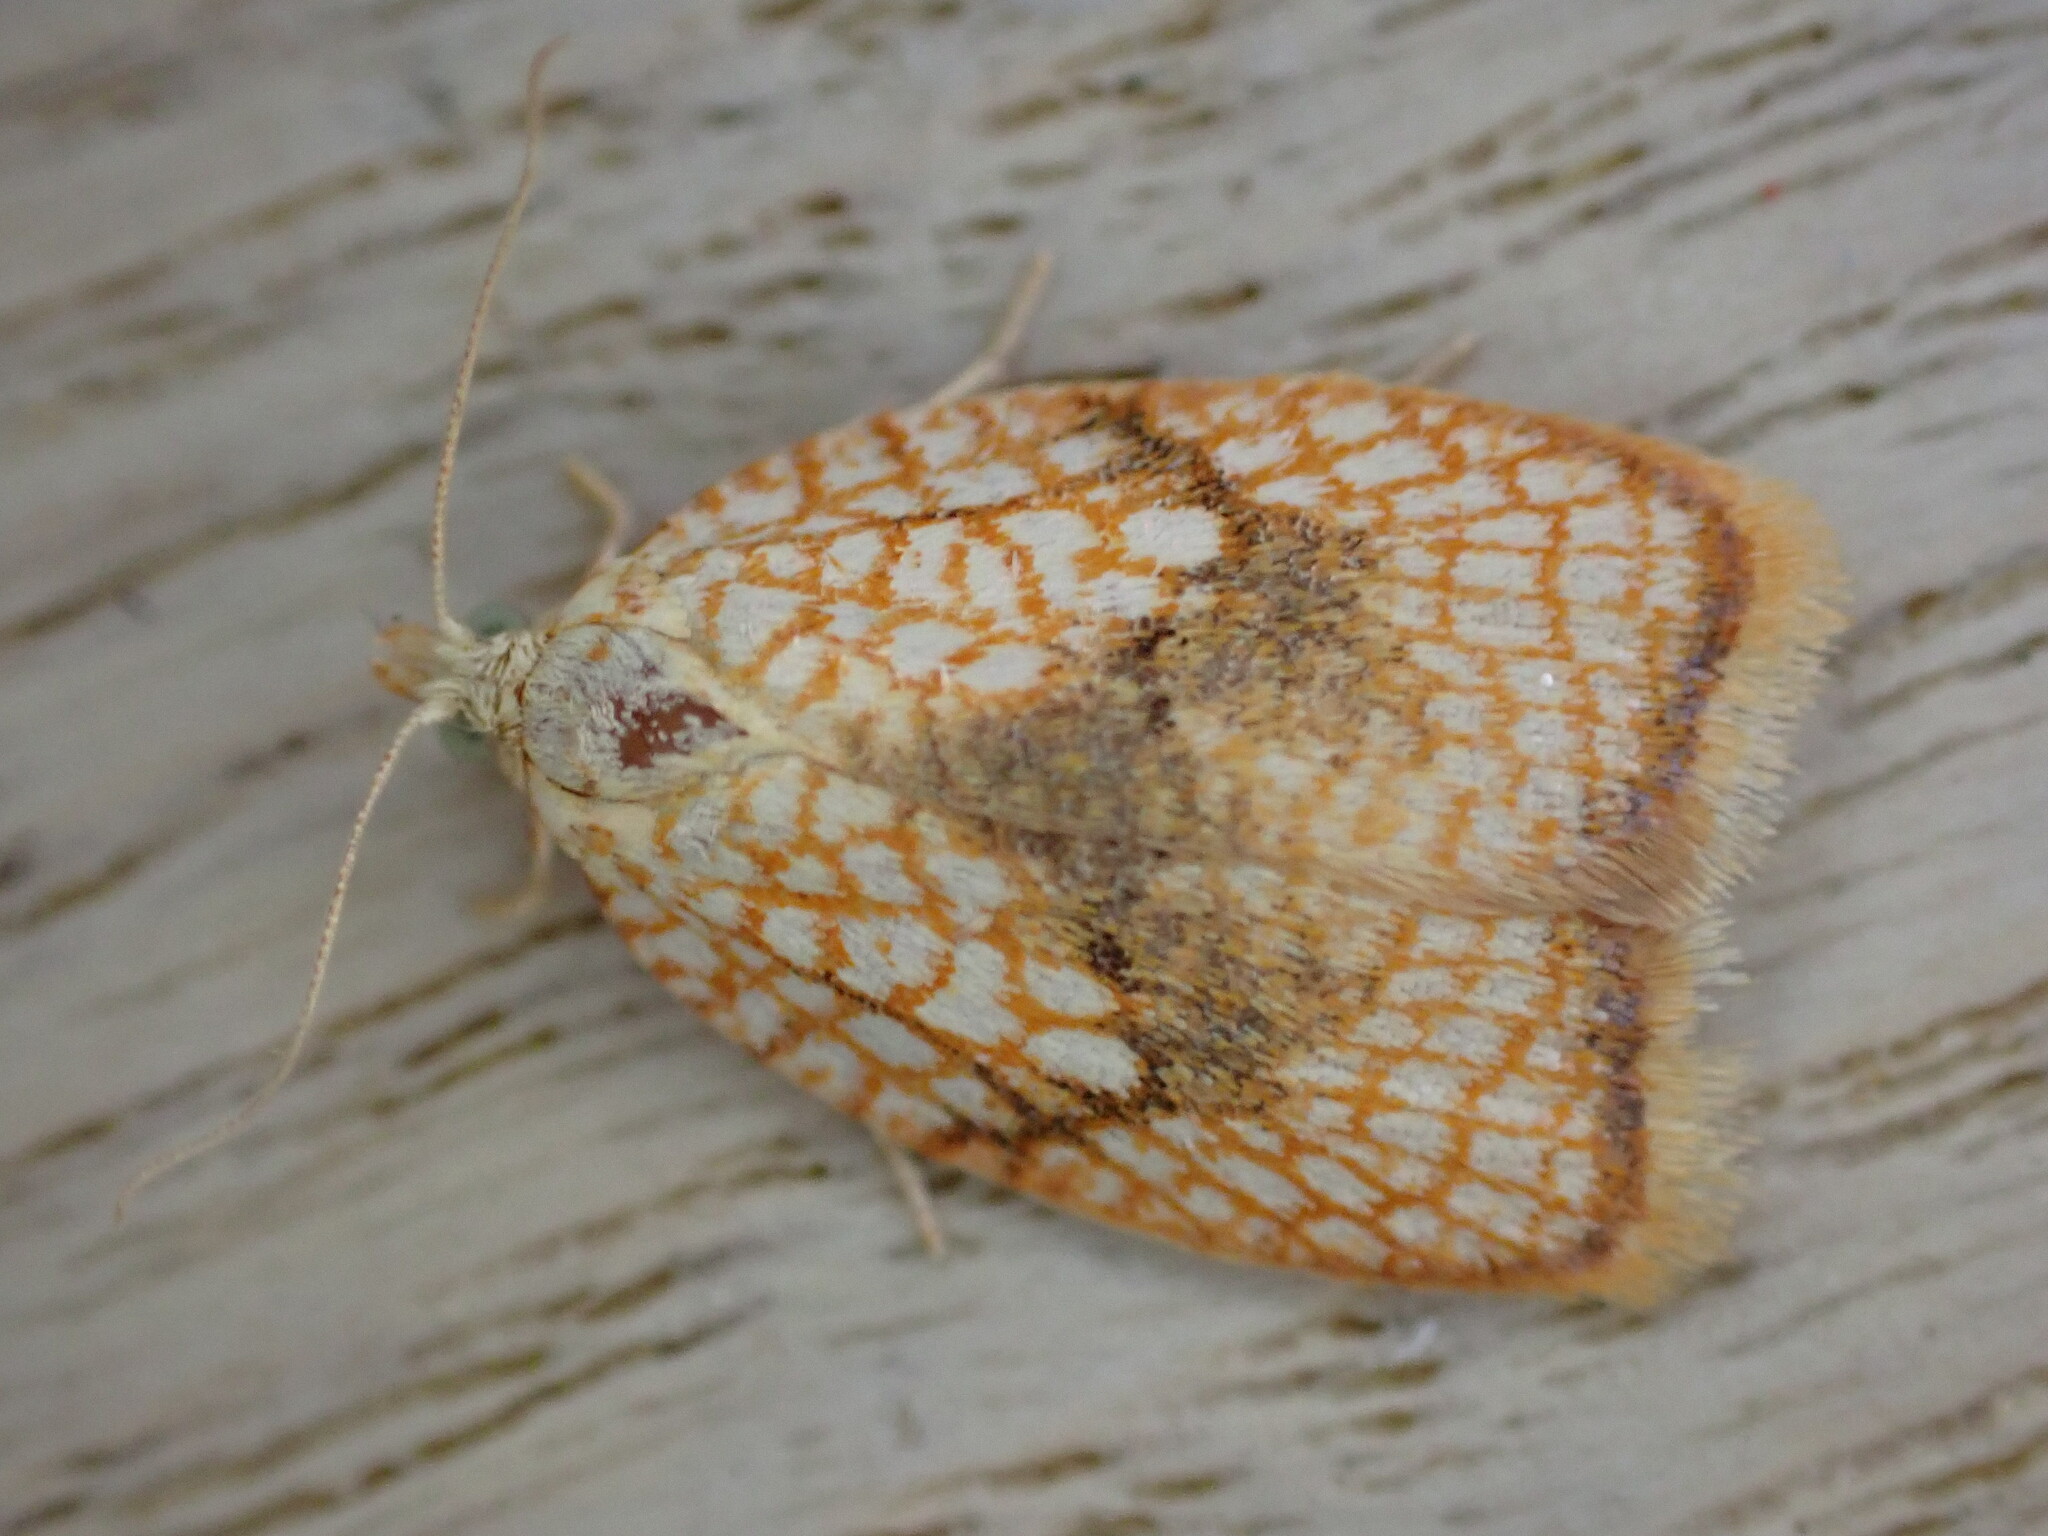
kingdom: Animalia
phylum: Arthropoda
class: Insecta
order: Lepidoptera
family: Tortricidae
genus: Acleris
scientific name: Acleris forsskaleana
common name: Maple button
